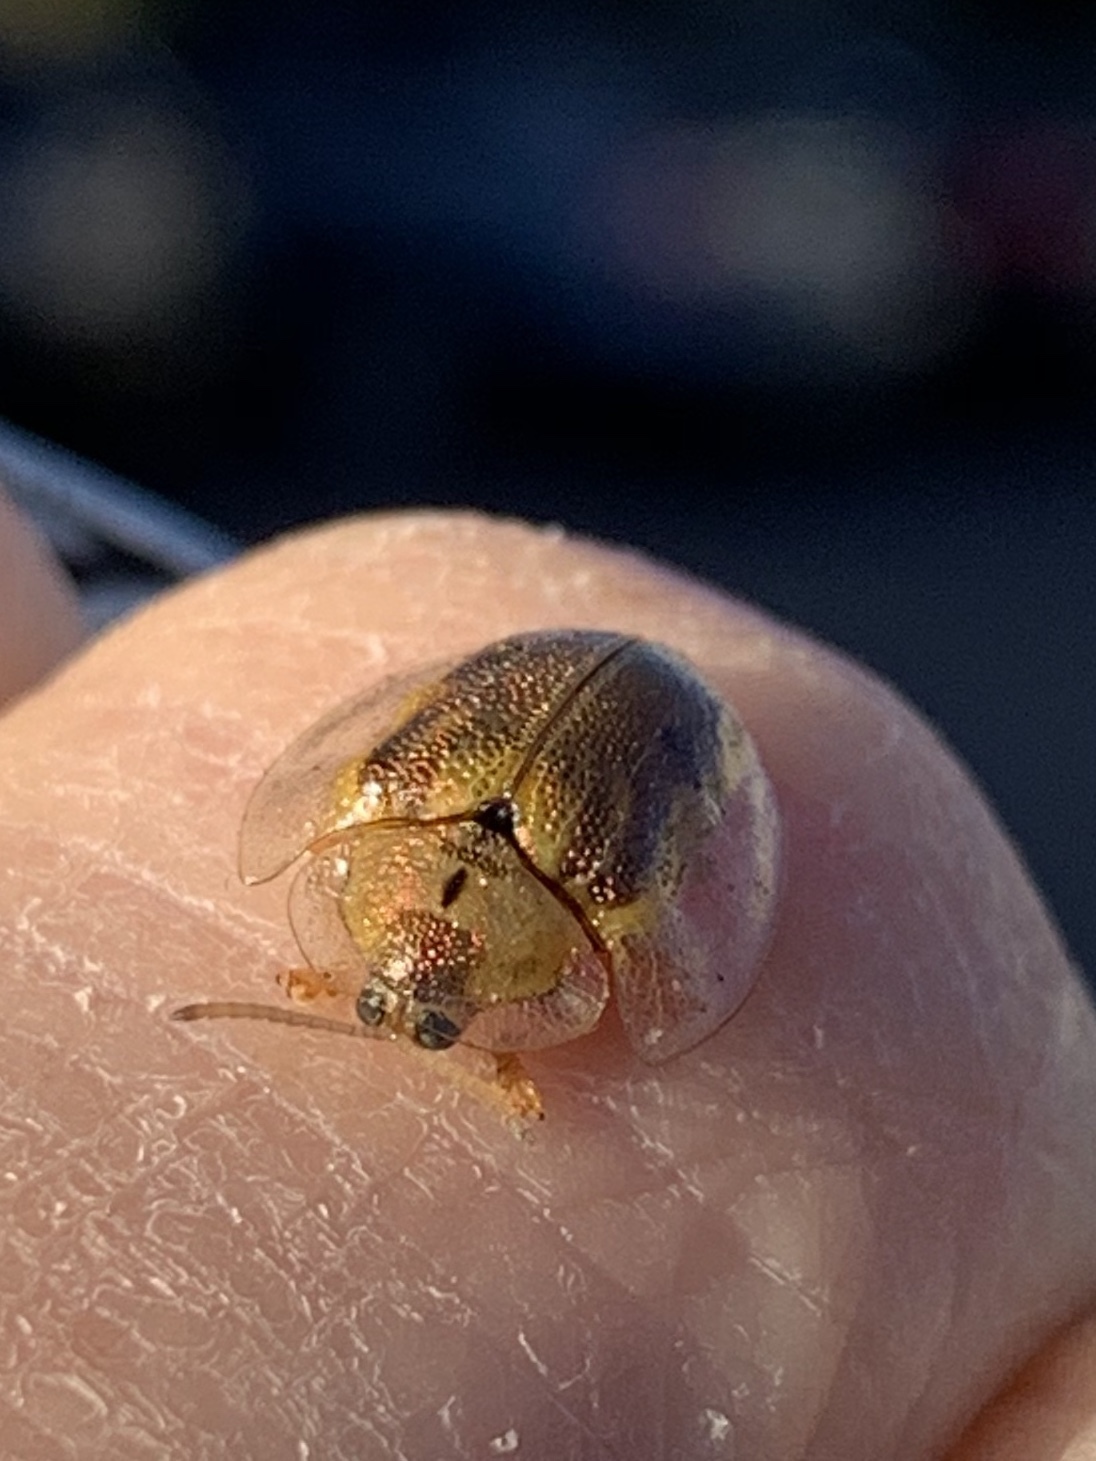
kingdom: Animalia
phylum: Arthropoda
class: Insecta
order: Coleoptera
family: Chrysomelidae
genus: Eurypepla
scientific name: Eurypepla calochroma
